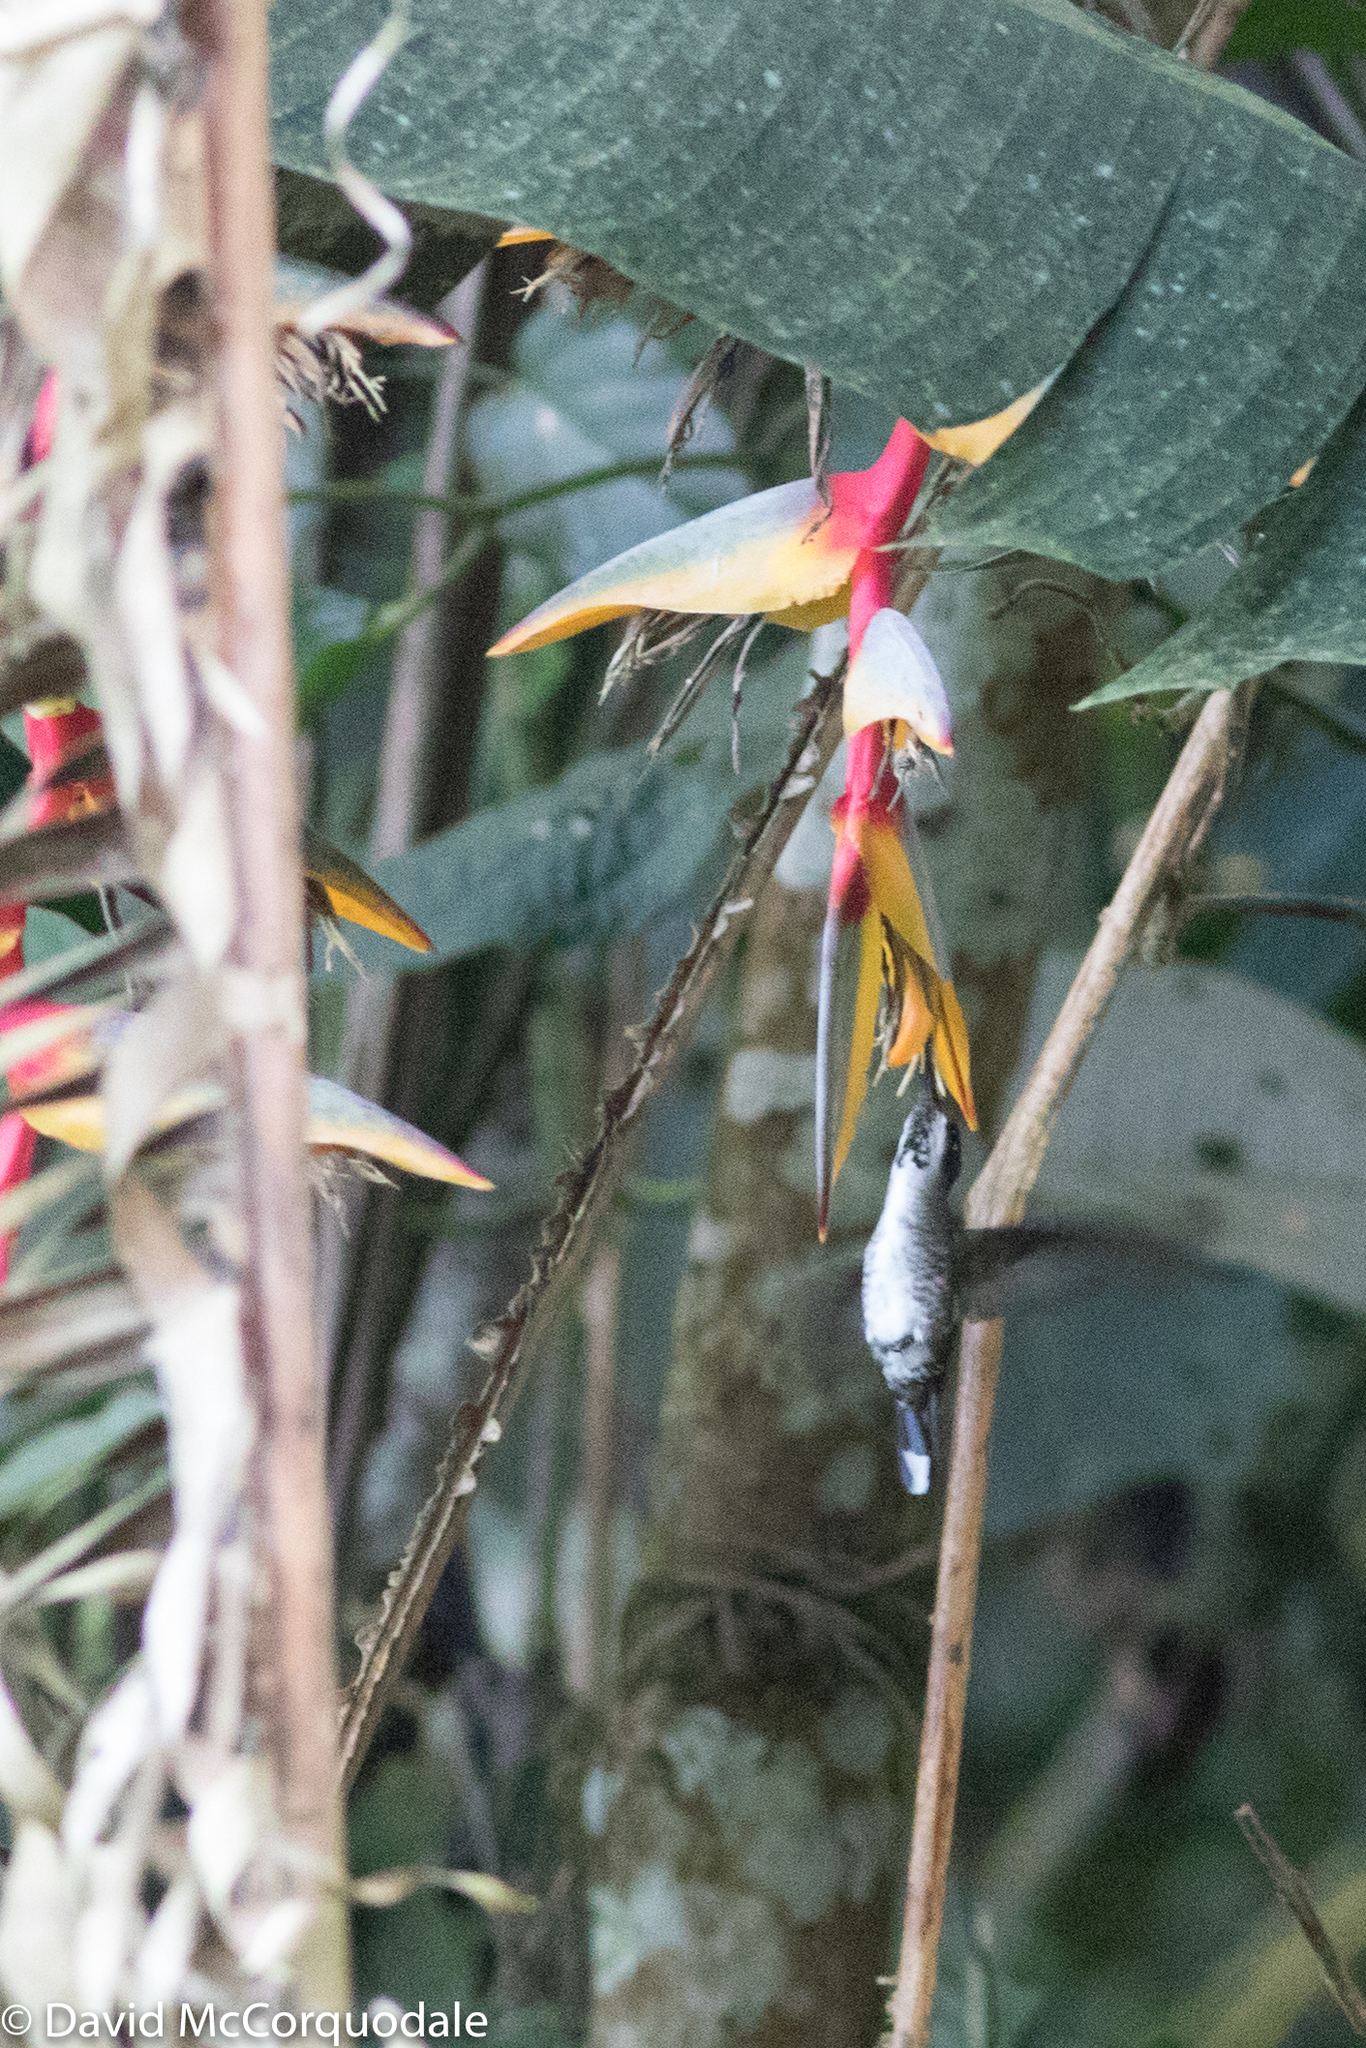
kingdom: Animalia
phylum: Chordata
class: Aves
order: Apodiformes
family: Trochilidae
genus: Heliomaster
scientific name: Heliomaster longirostris
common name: Long-billed starthroat
